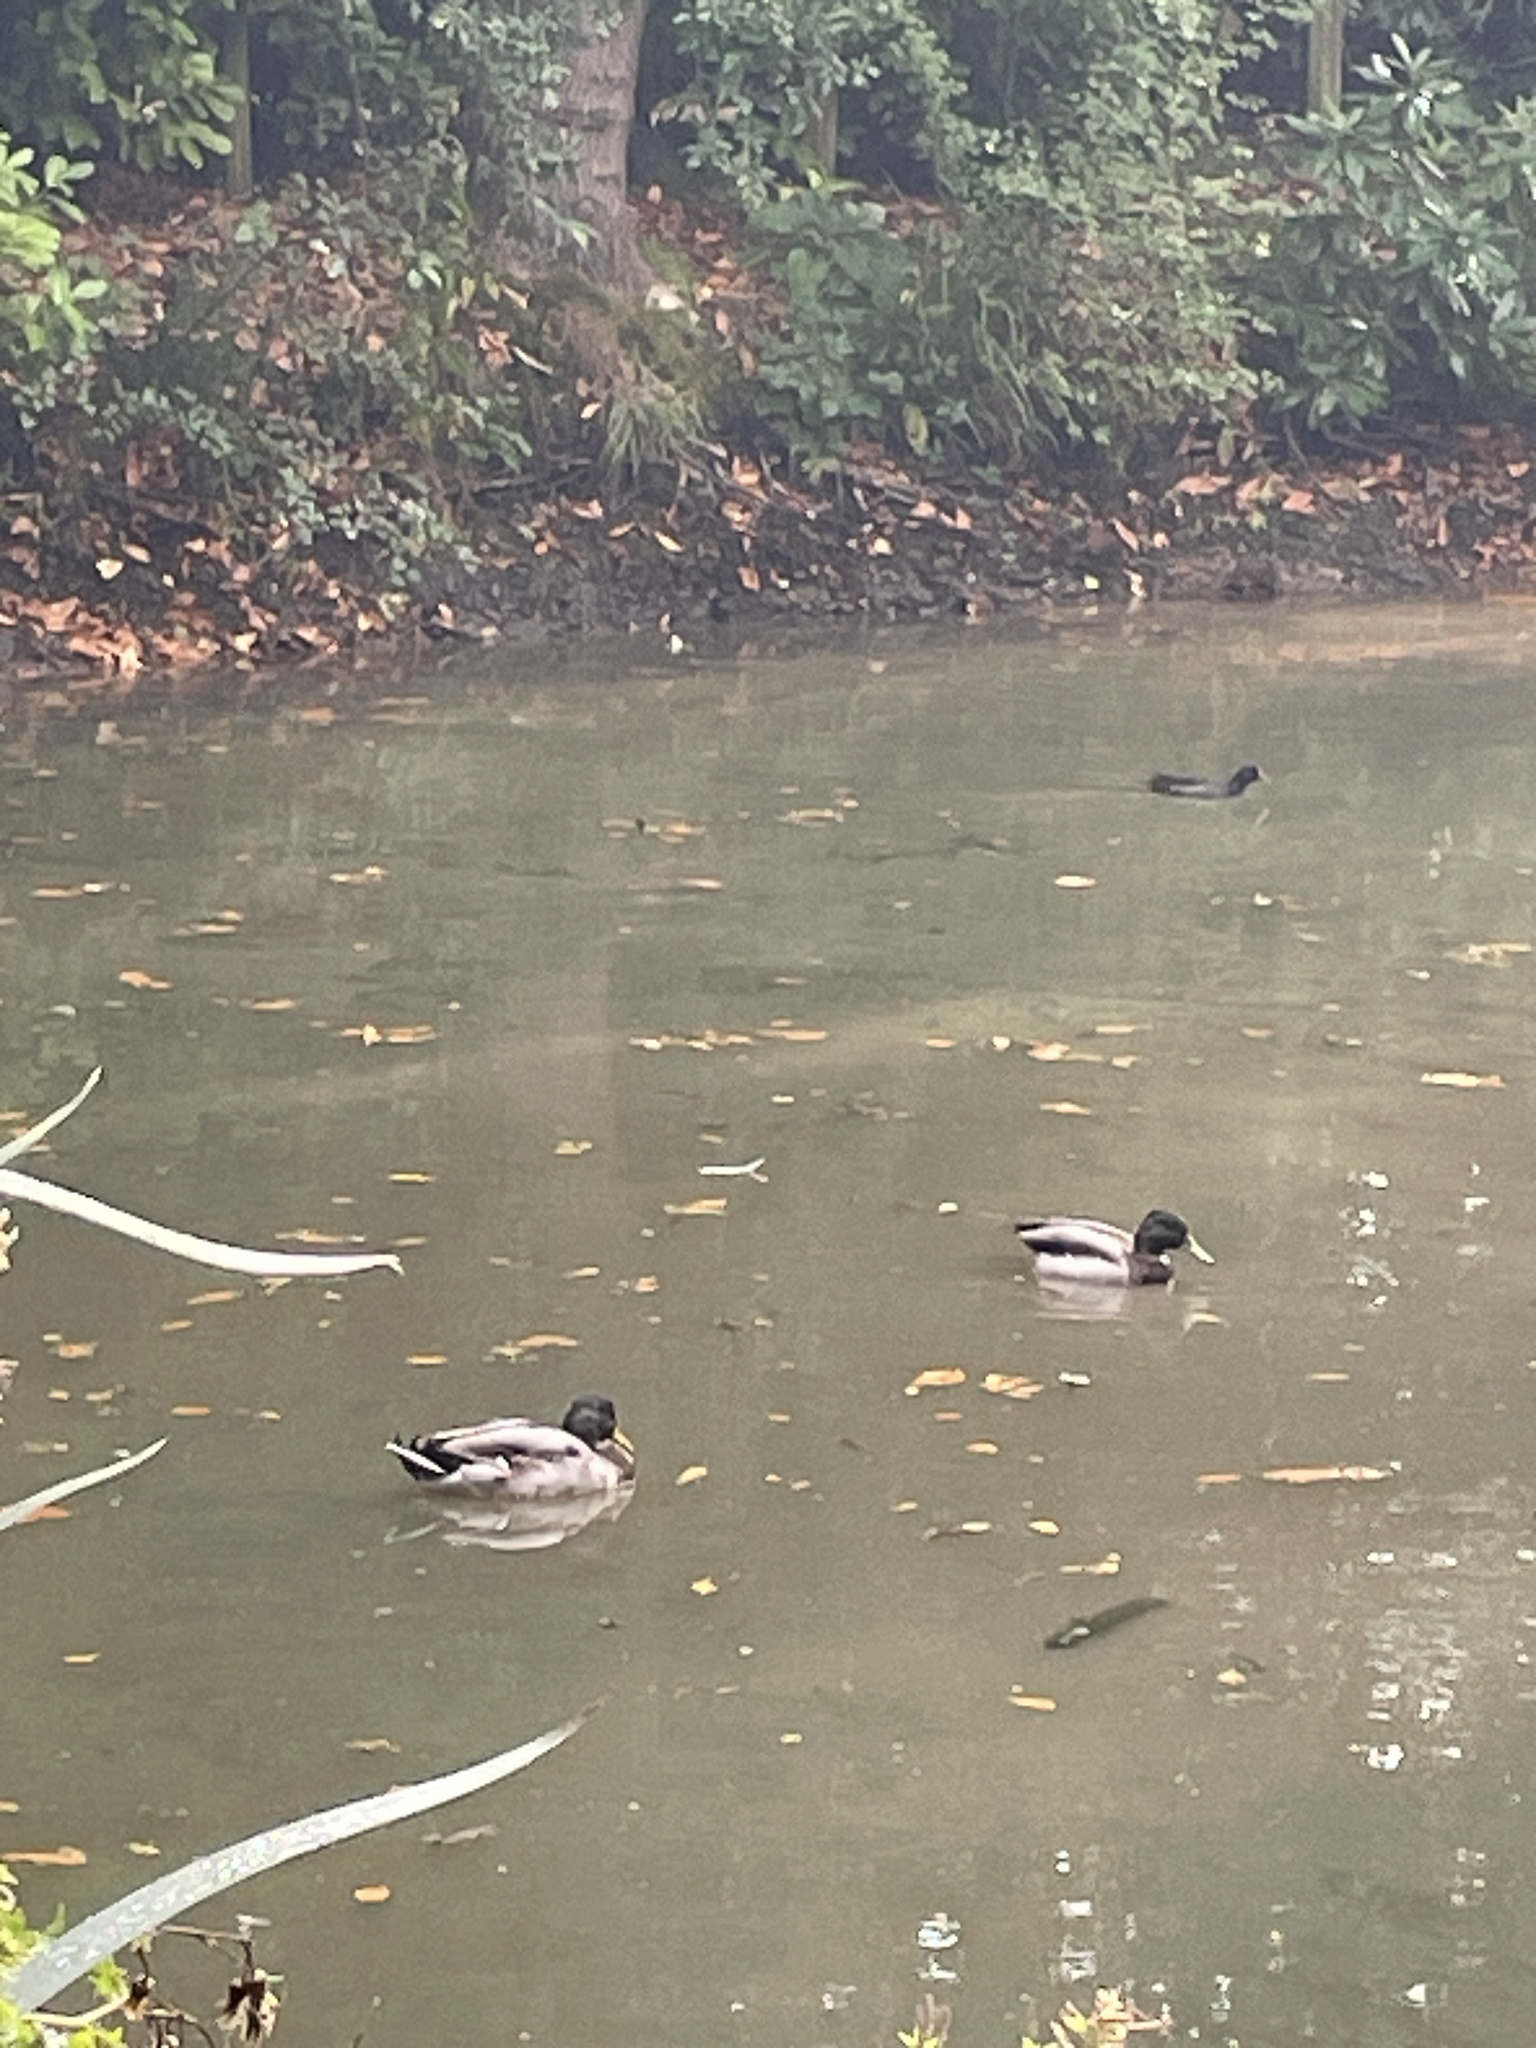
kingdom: Animalia
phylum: Chordata
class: Aves
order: Anseriformes
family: Anatidae
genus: Anas
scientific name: Anas platyrhynchos
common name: Mallard
